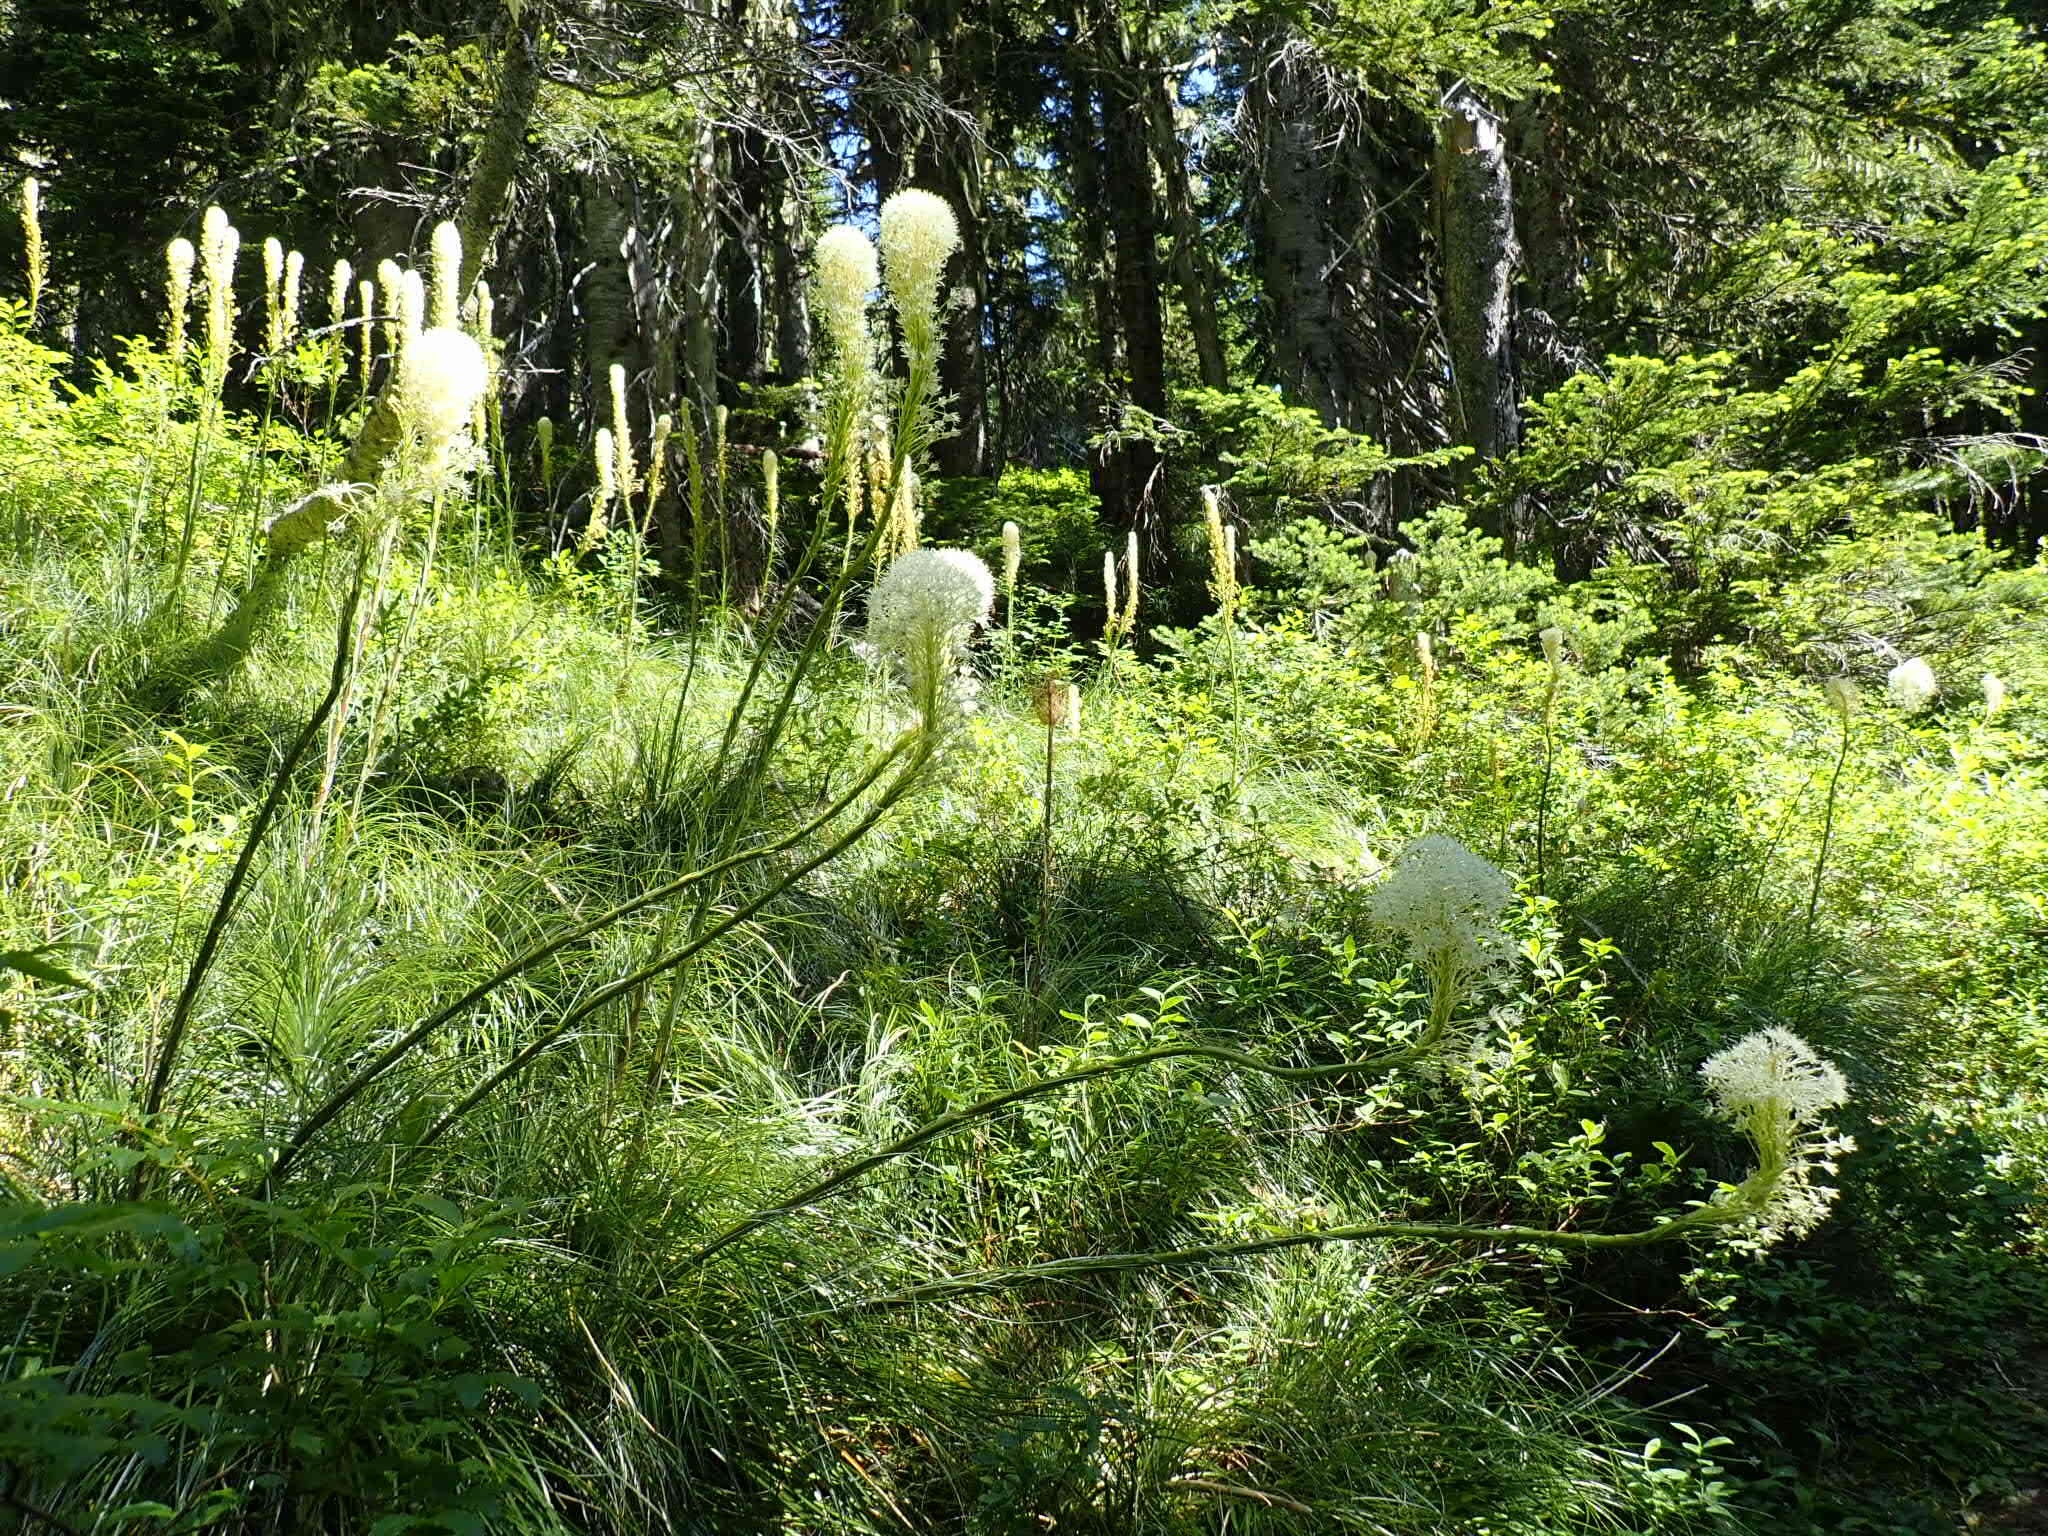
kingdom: Plantae
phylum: Tracheophyta
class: Liliopsida
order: Liliales
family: Melanthiaceae
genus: Xerophyllum
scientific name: Xerophyllum tenax
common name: Bear-grass
